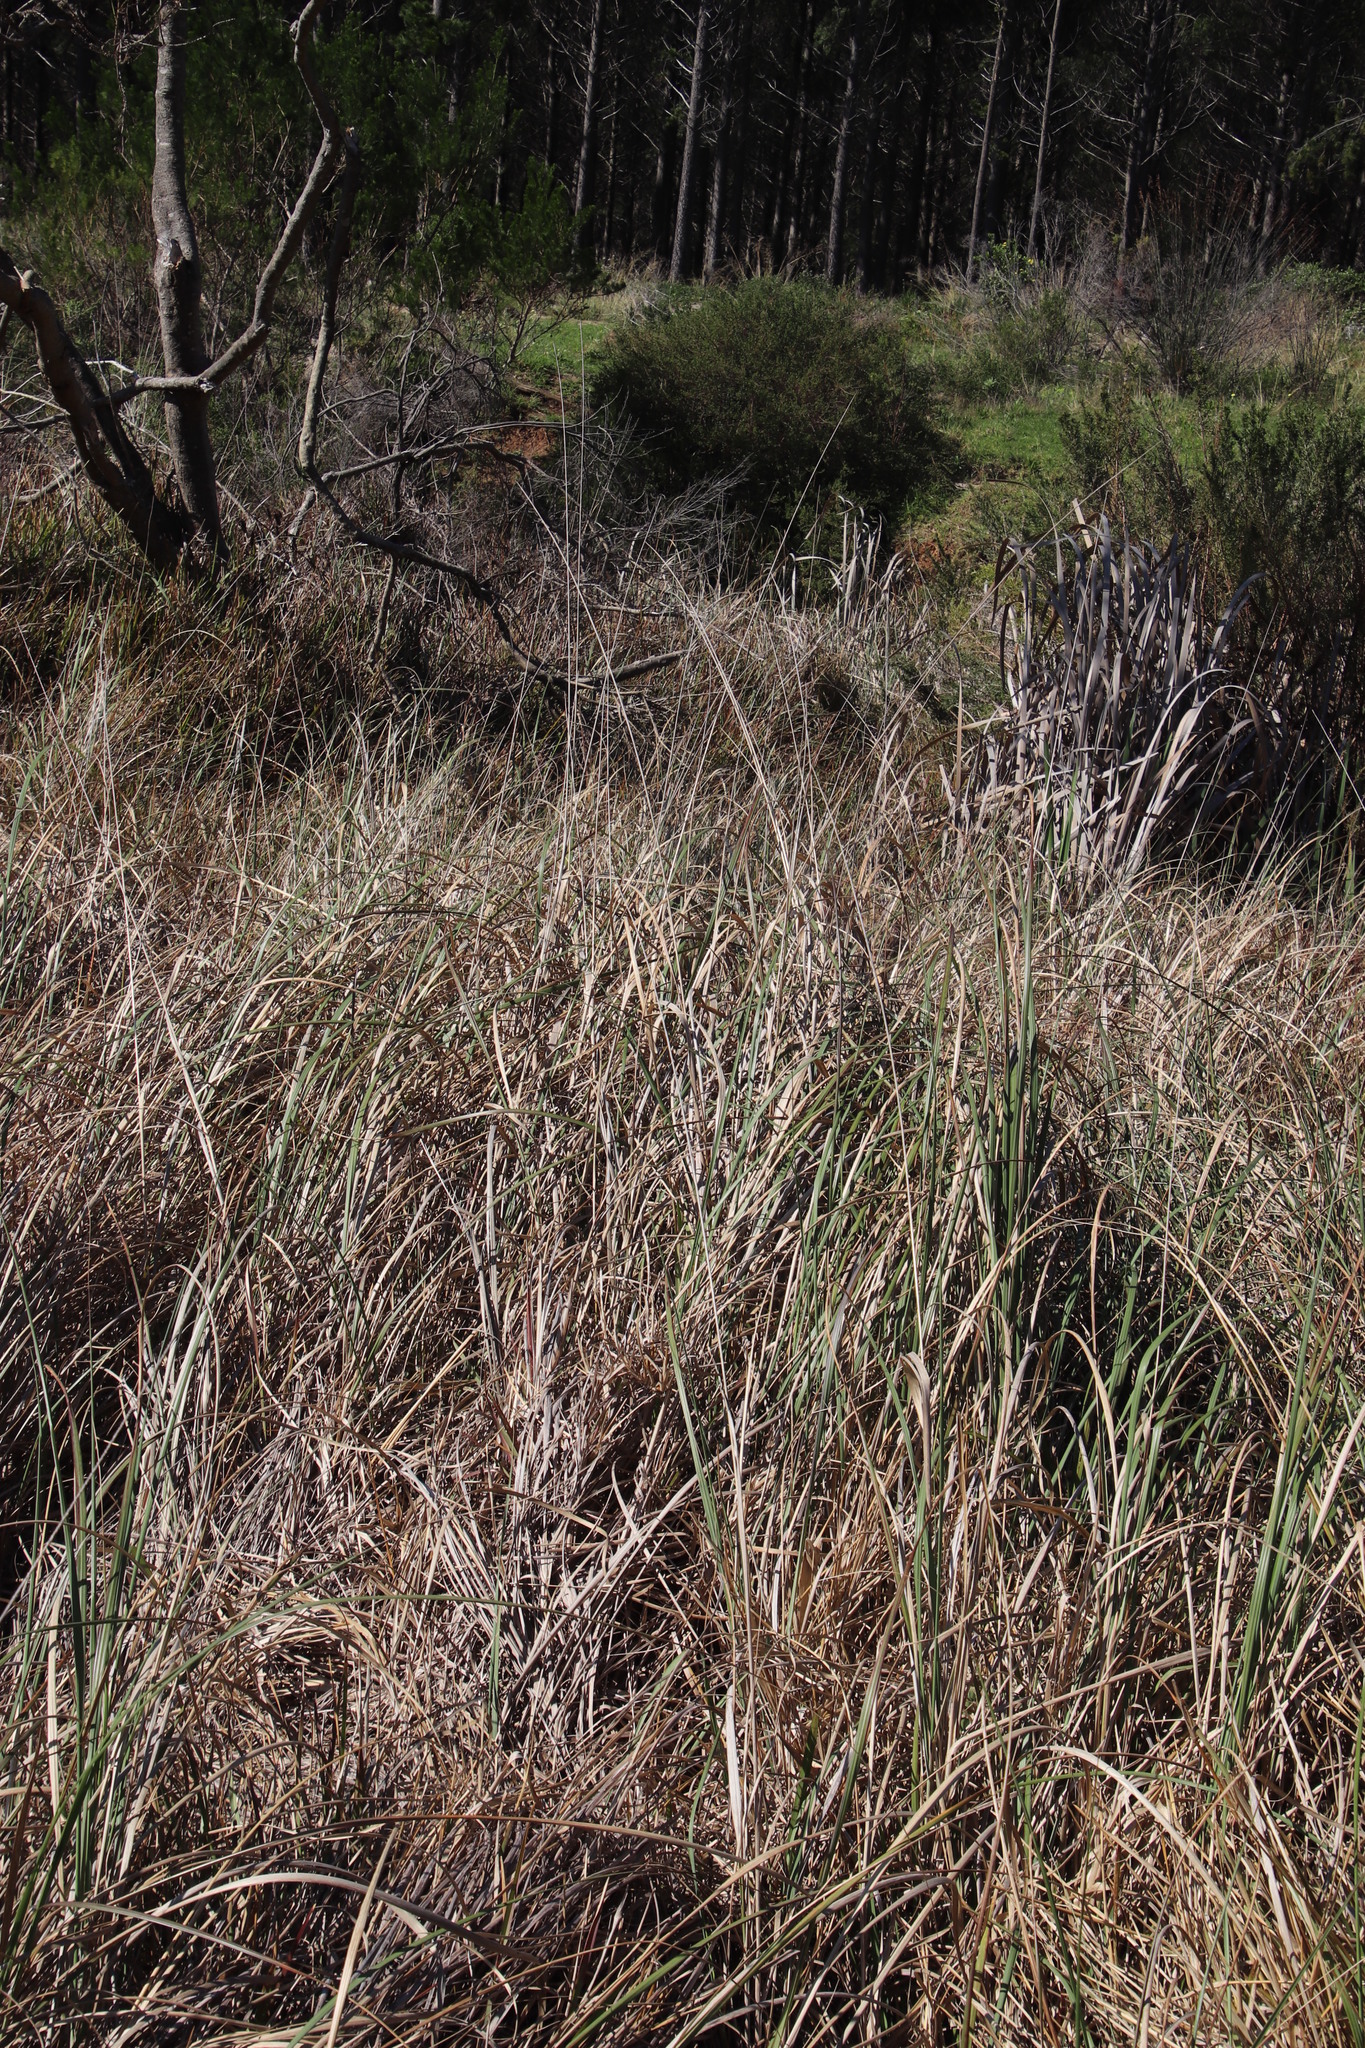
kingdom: Plantae
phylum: Tracheophyta
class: Liliopsida
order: Poales
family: Poaceae
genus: Cenchrus
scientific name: Cenchrus caudatus
